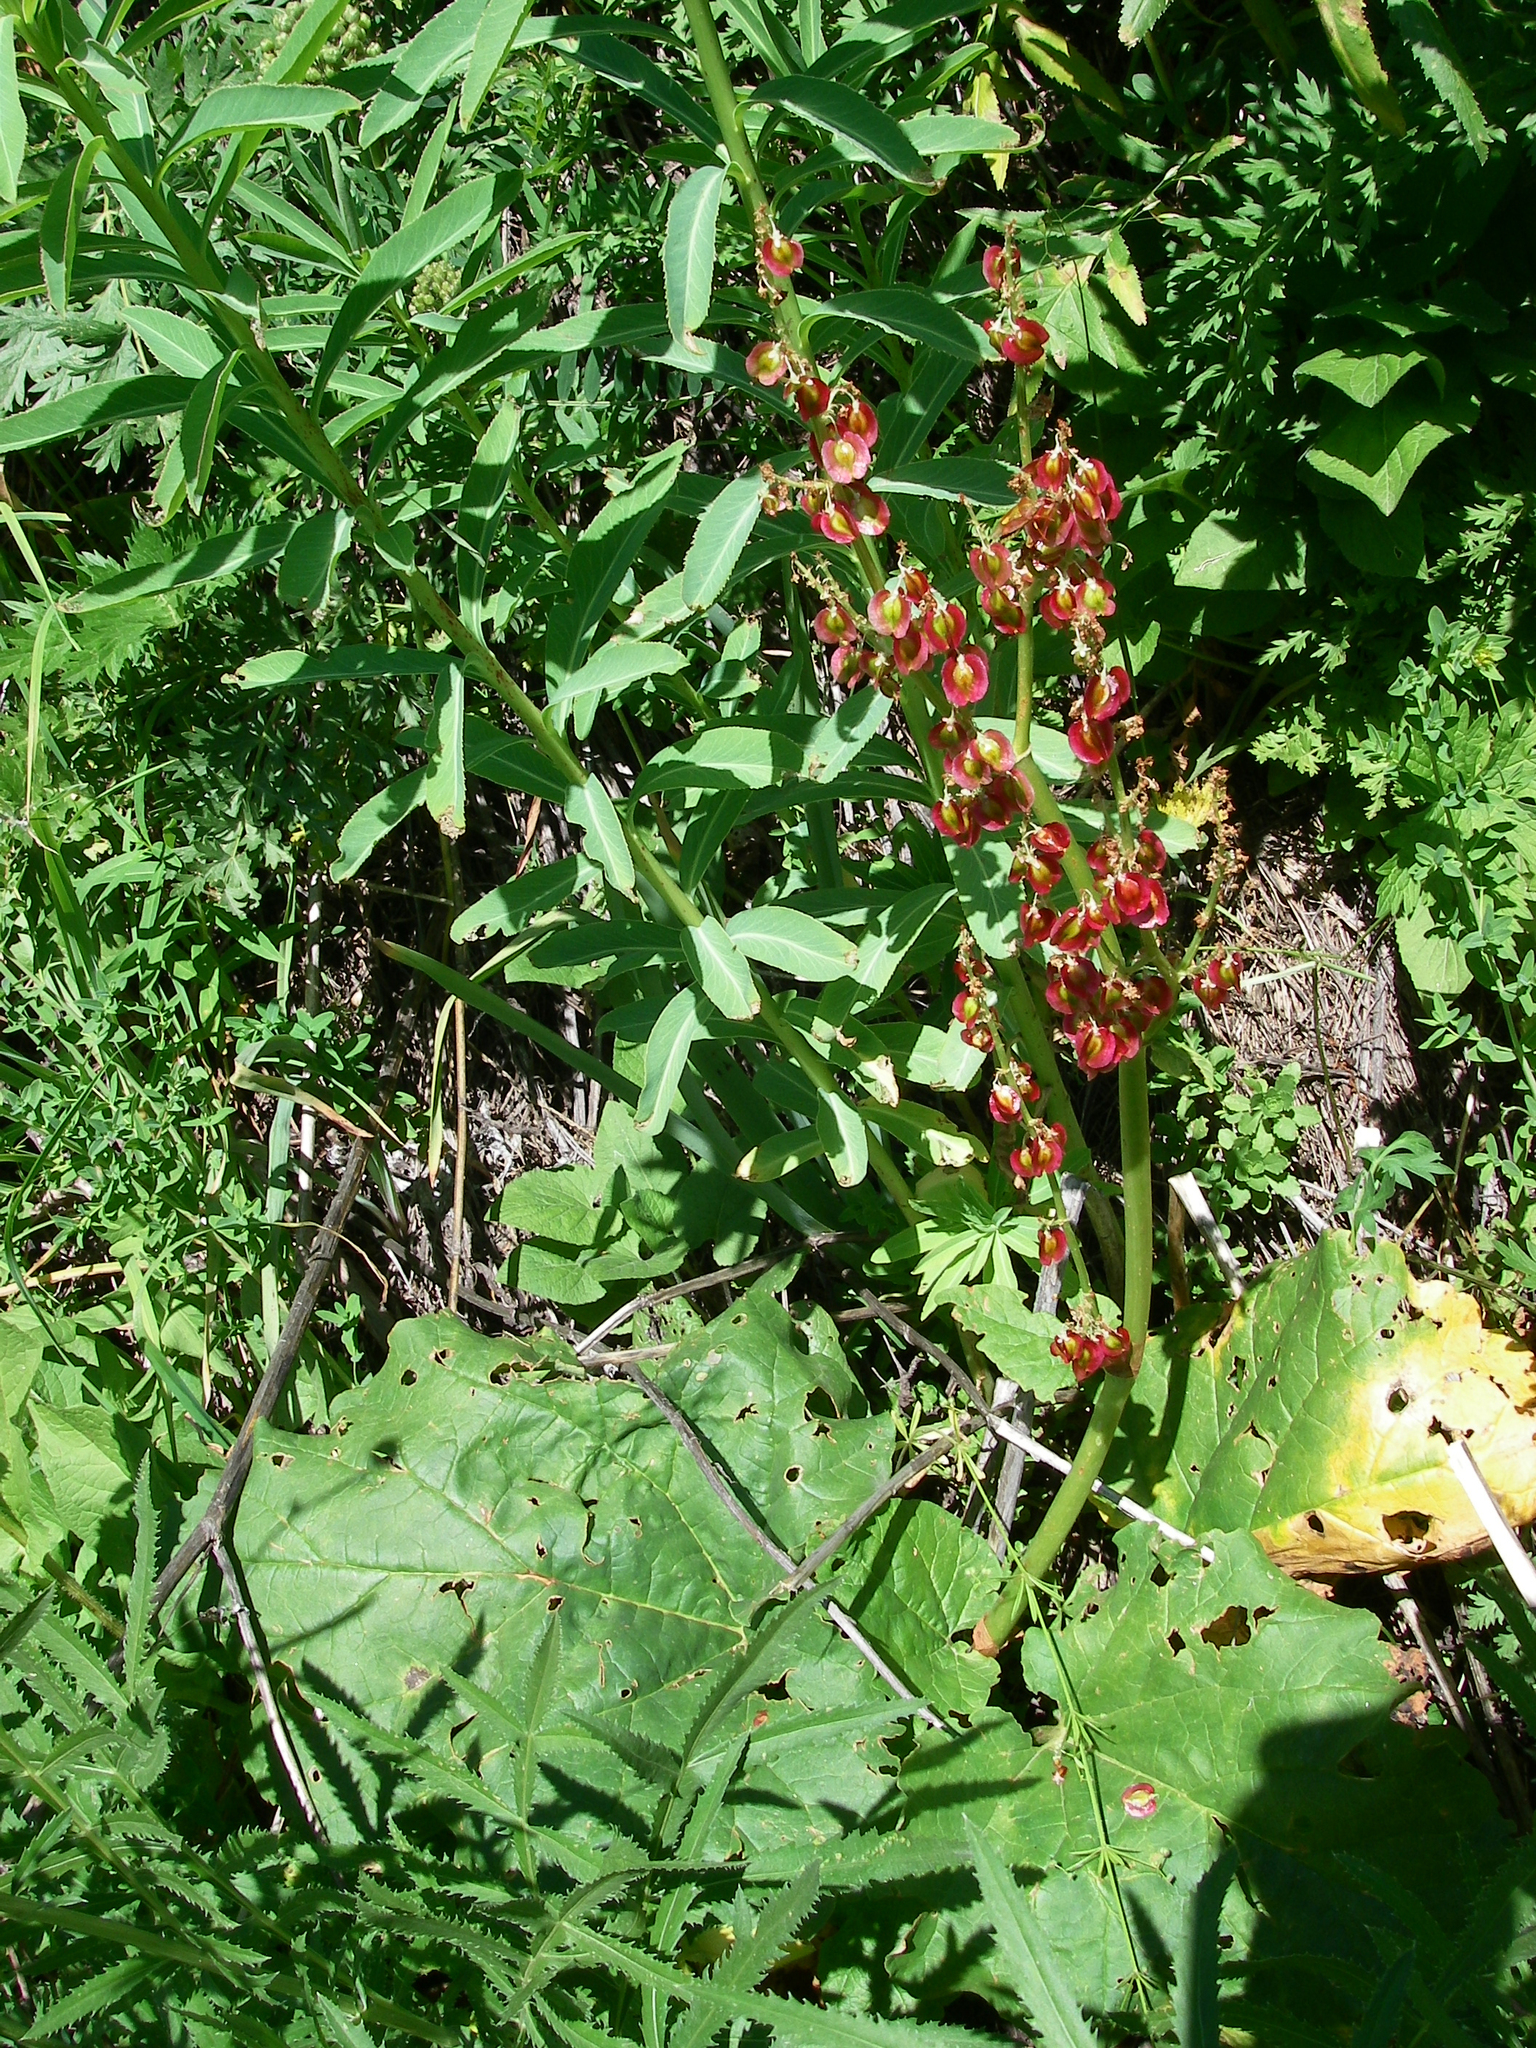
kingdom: Plantae
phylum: Tracheophyta
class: Magnoliopsida
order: Caryophyllales
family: Polygonaceae
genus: Rheum
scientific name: Rheum wittrockii
